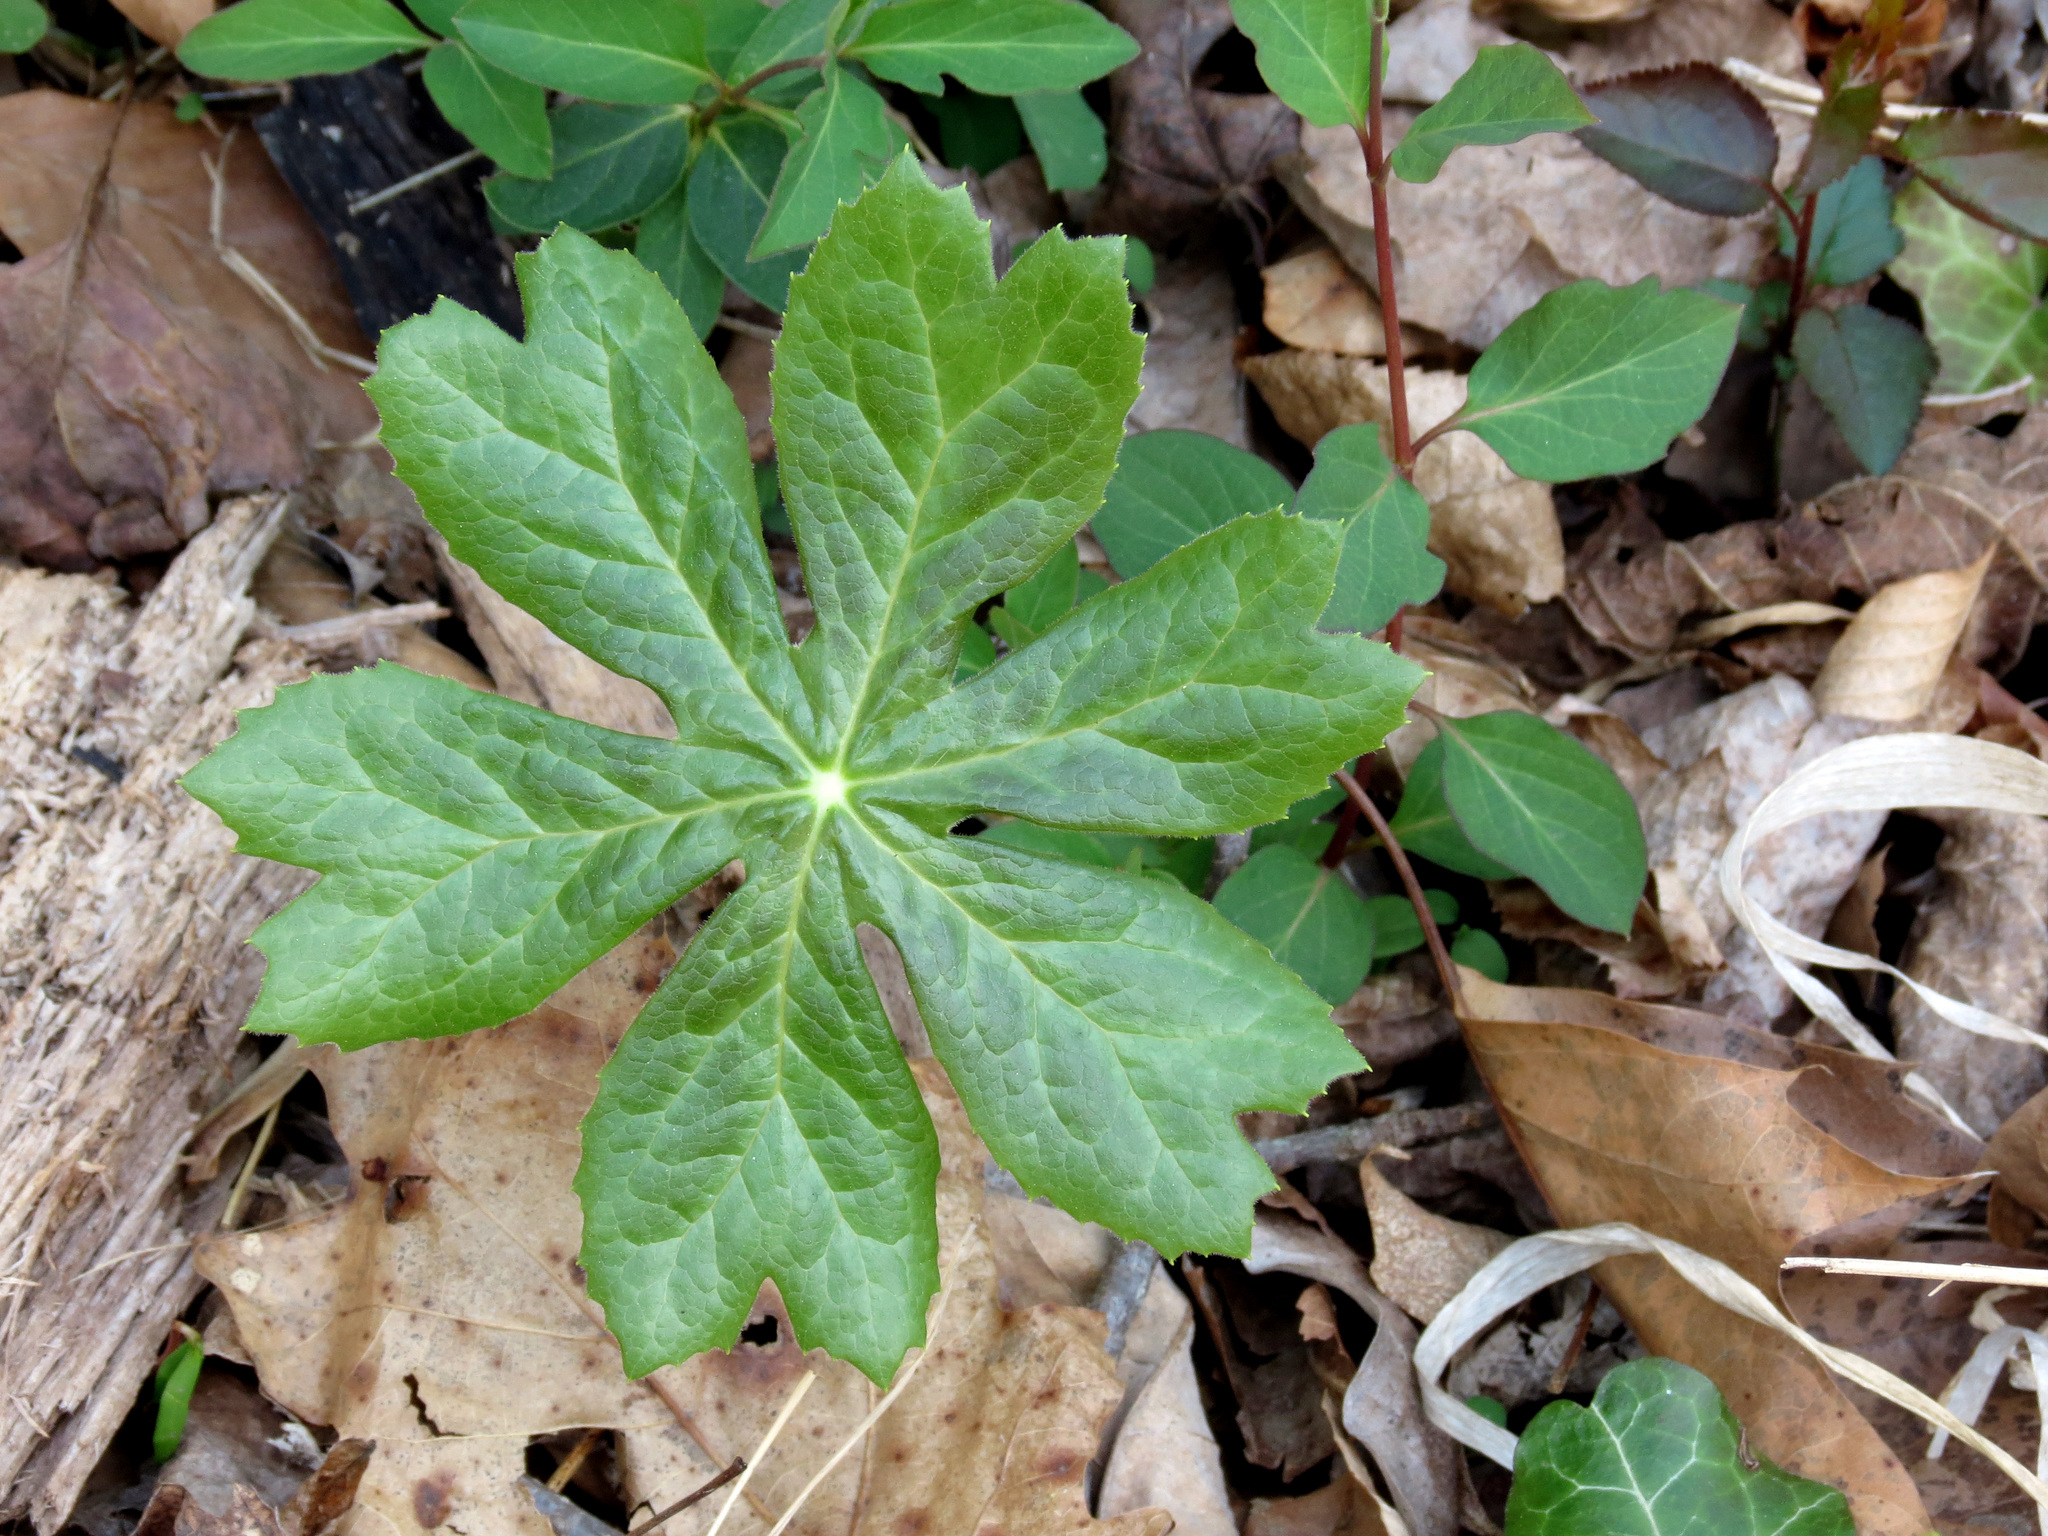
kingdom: Plantae
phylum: Tracheophyta
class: Magnoliopsida
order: Ranunculales
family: Berberidaceae
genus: Podophyllum
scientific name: Podophyllum peltatum
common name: Wild mandrake
